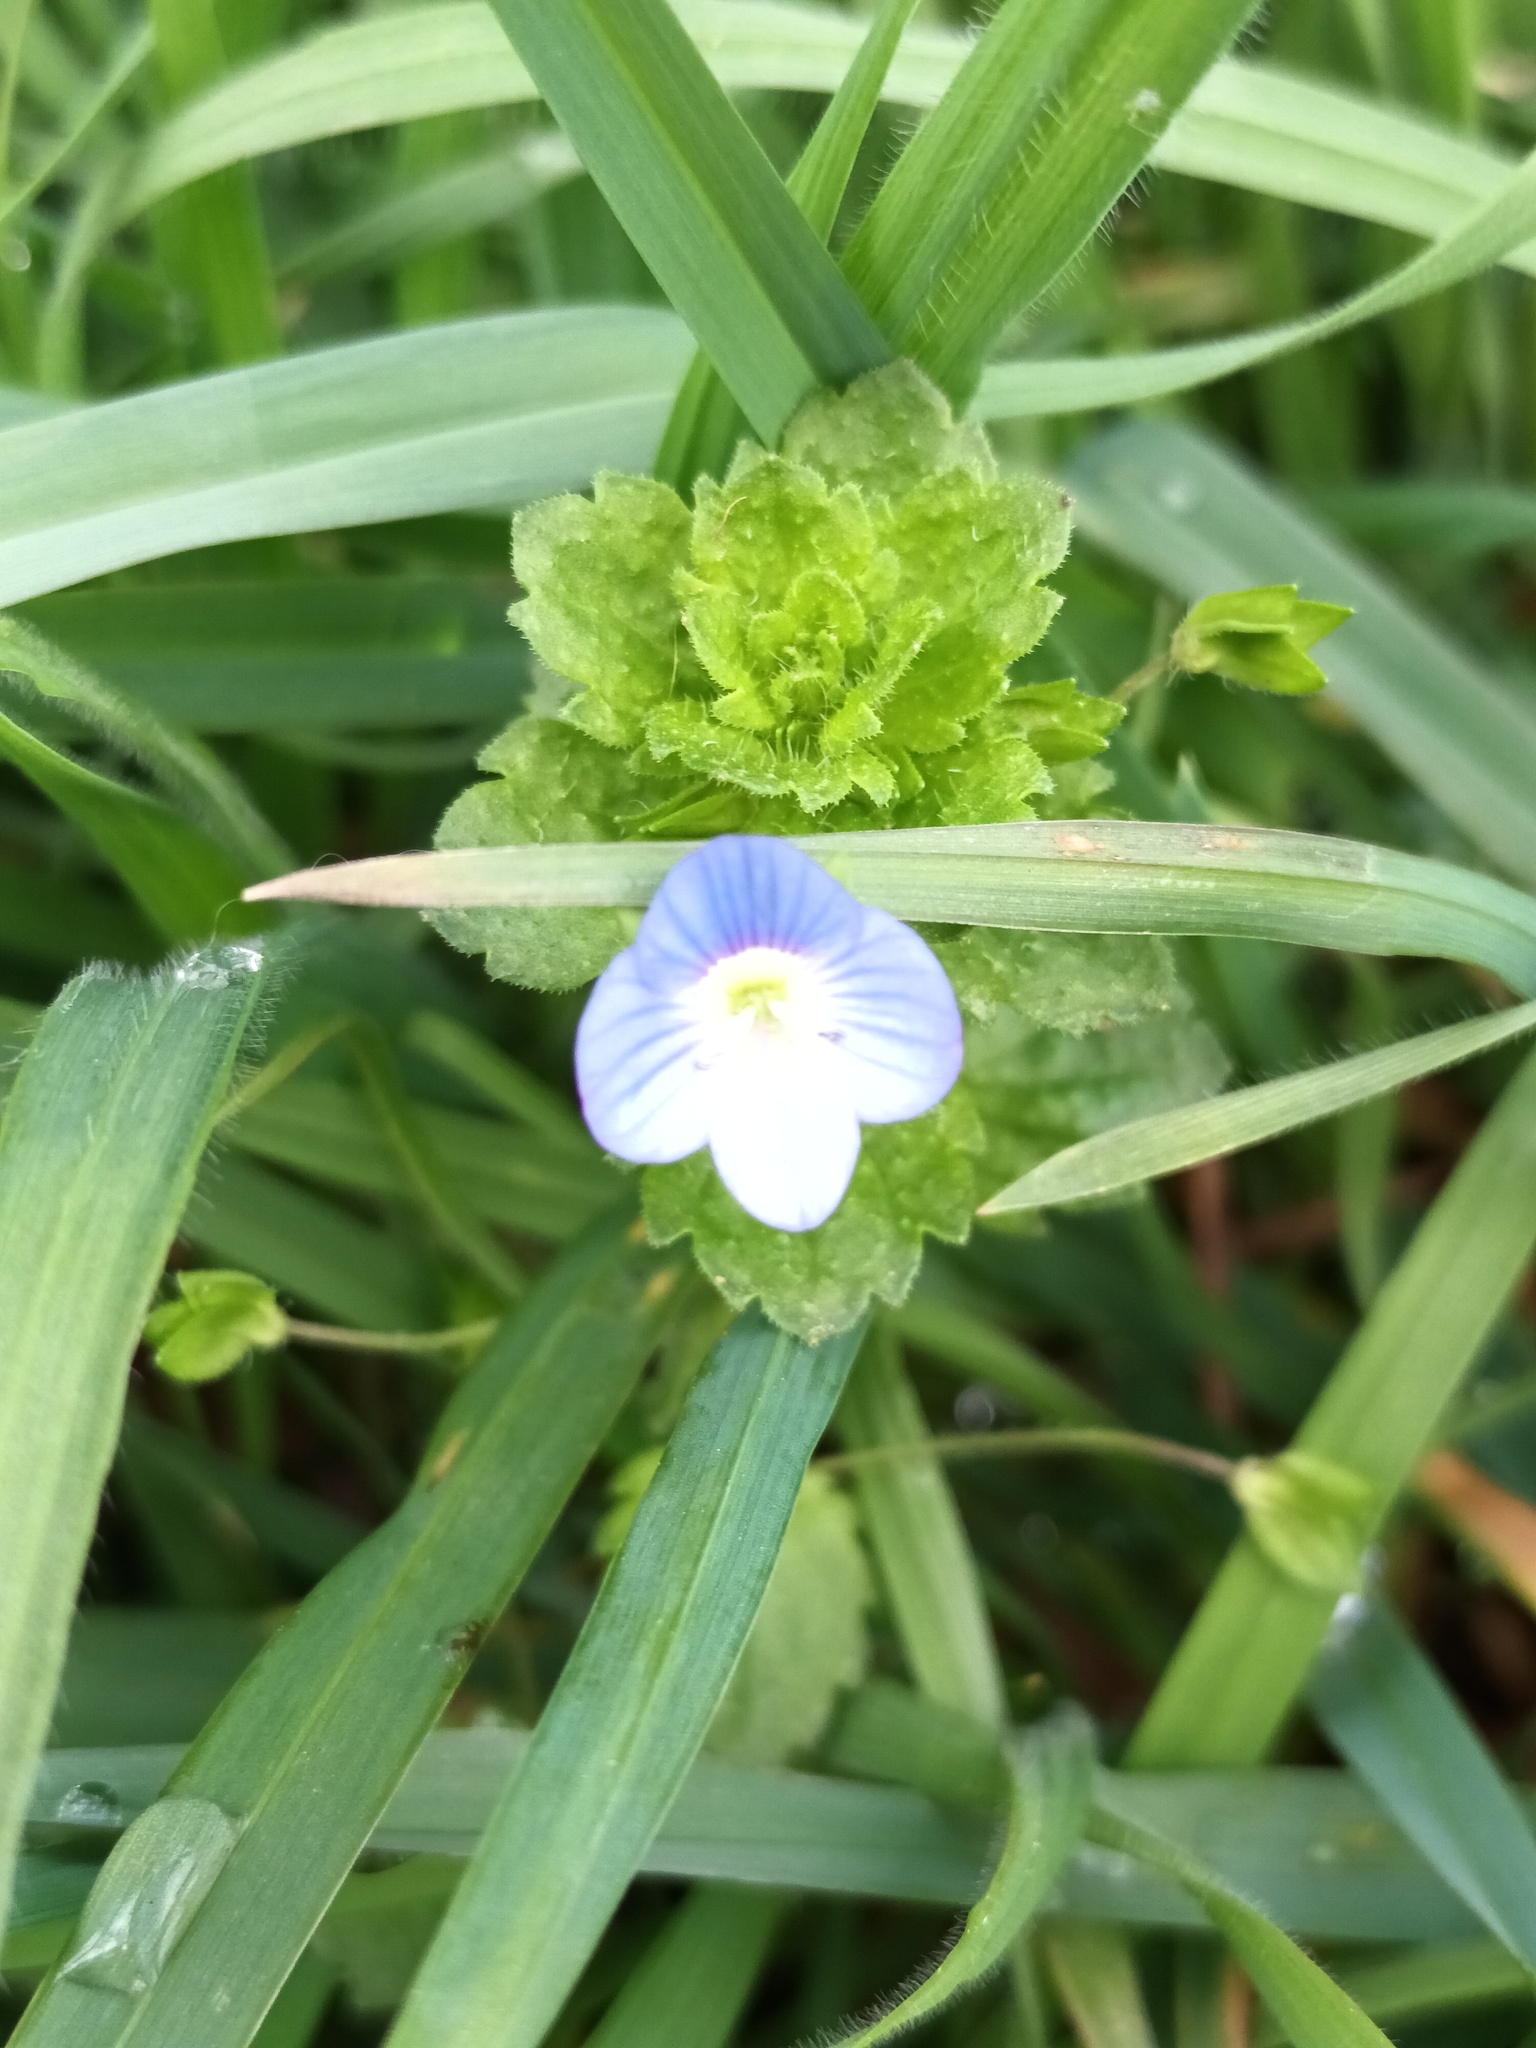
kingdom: Plantae
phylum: Tracheophyta
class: Magnoliopsida
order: Lamiales
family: Plantaginaceae
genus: Veronica
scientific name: Veronica persica
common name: Common field-speedwell
